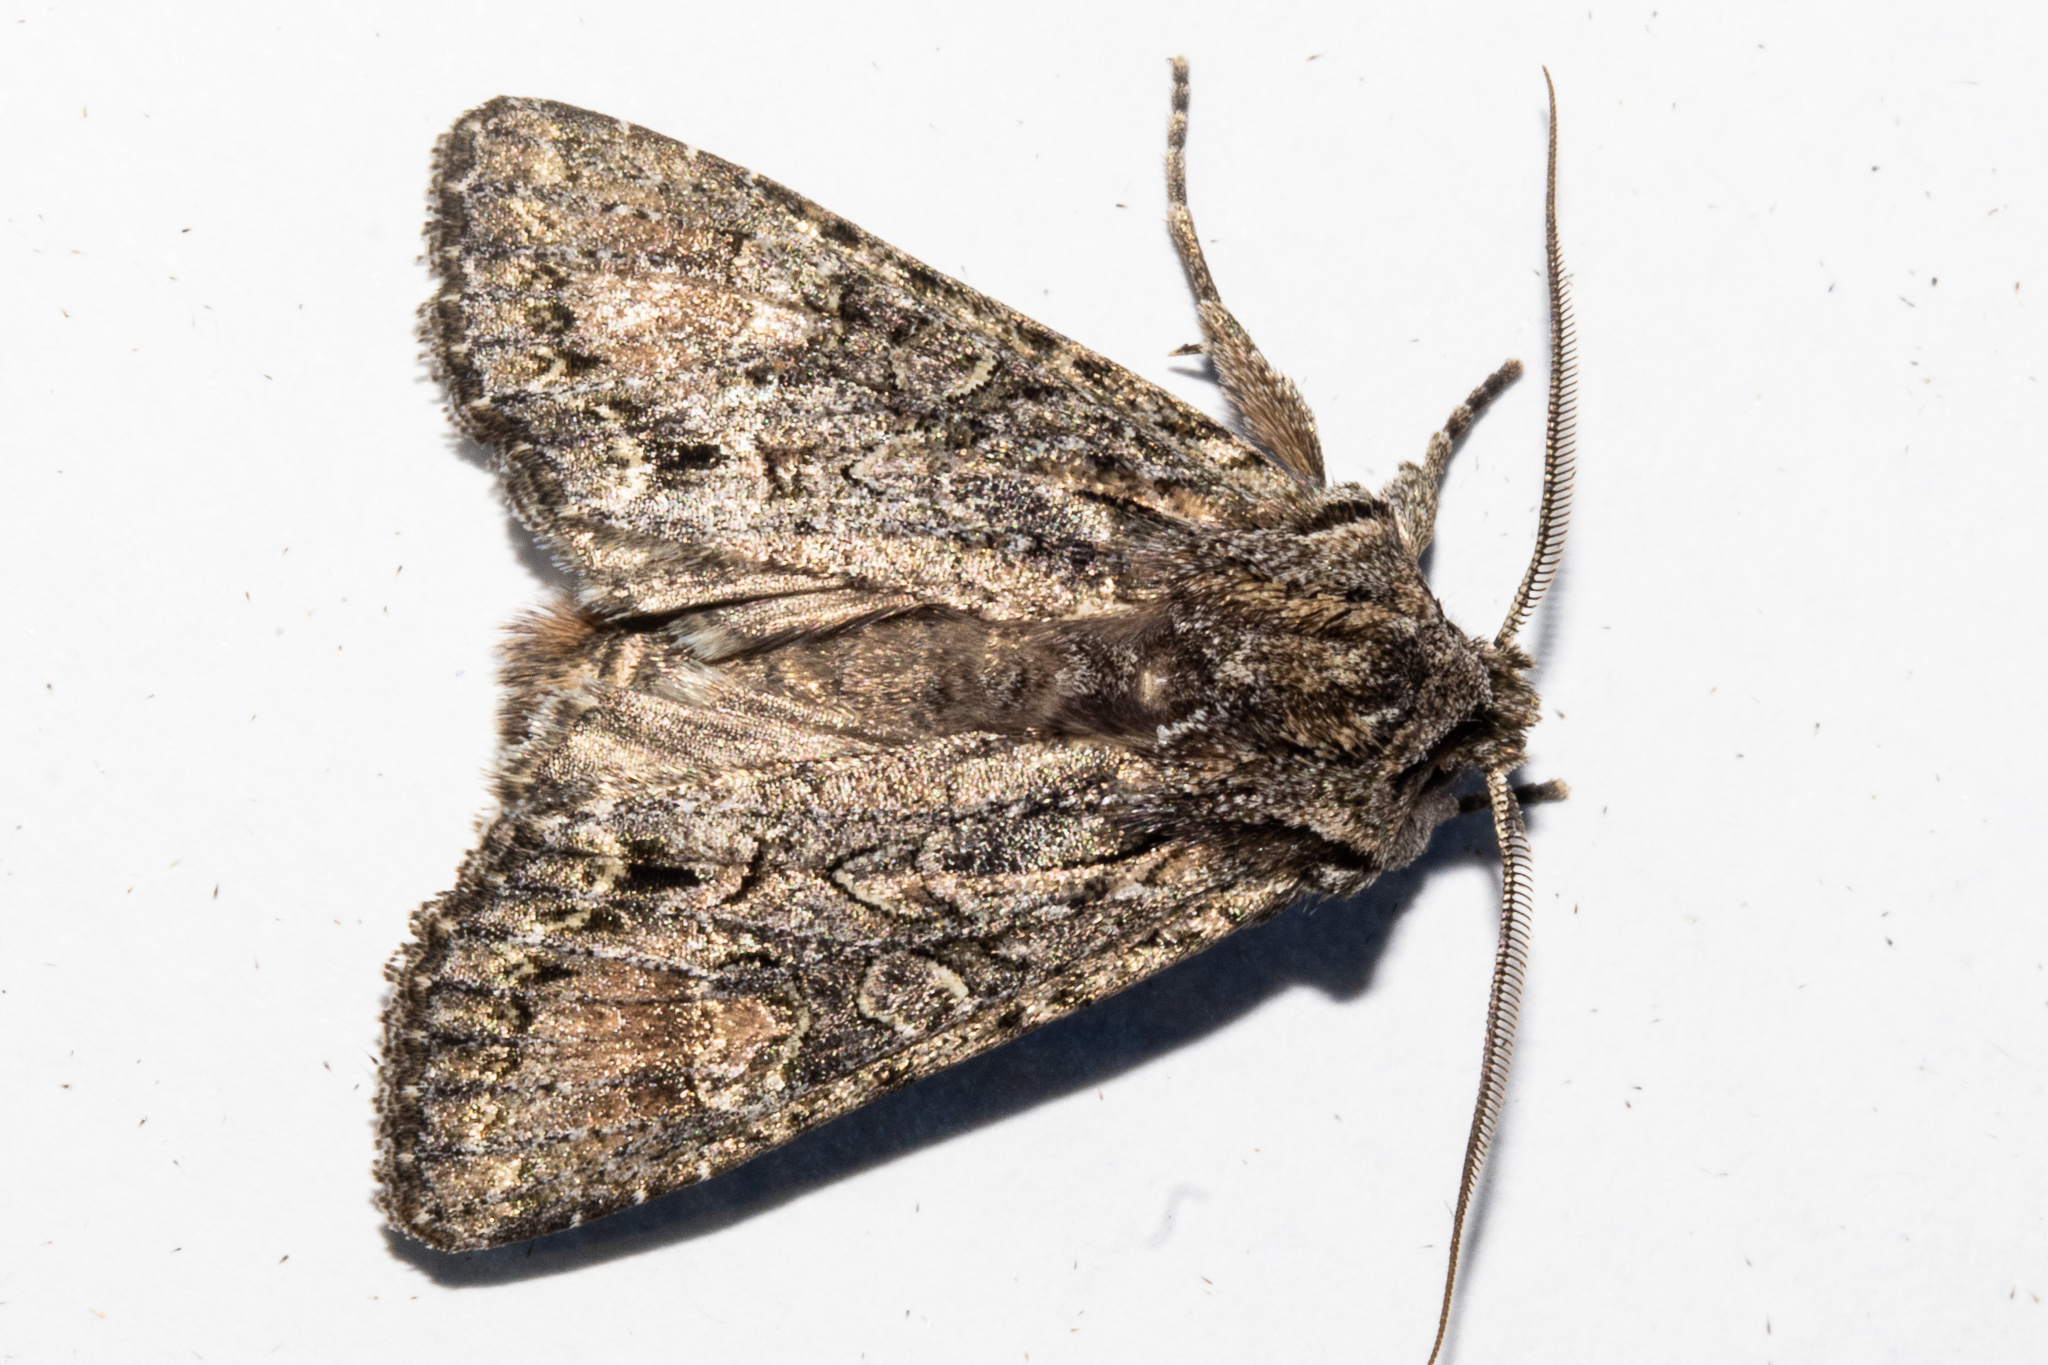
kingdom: Animalia
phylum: Arthropoda
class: Insecta
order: Lepidoptera
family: Noctuidae
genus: Ichneutica
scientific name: Ichneutica mutans
